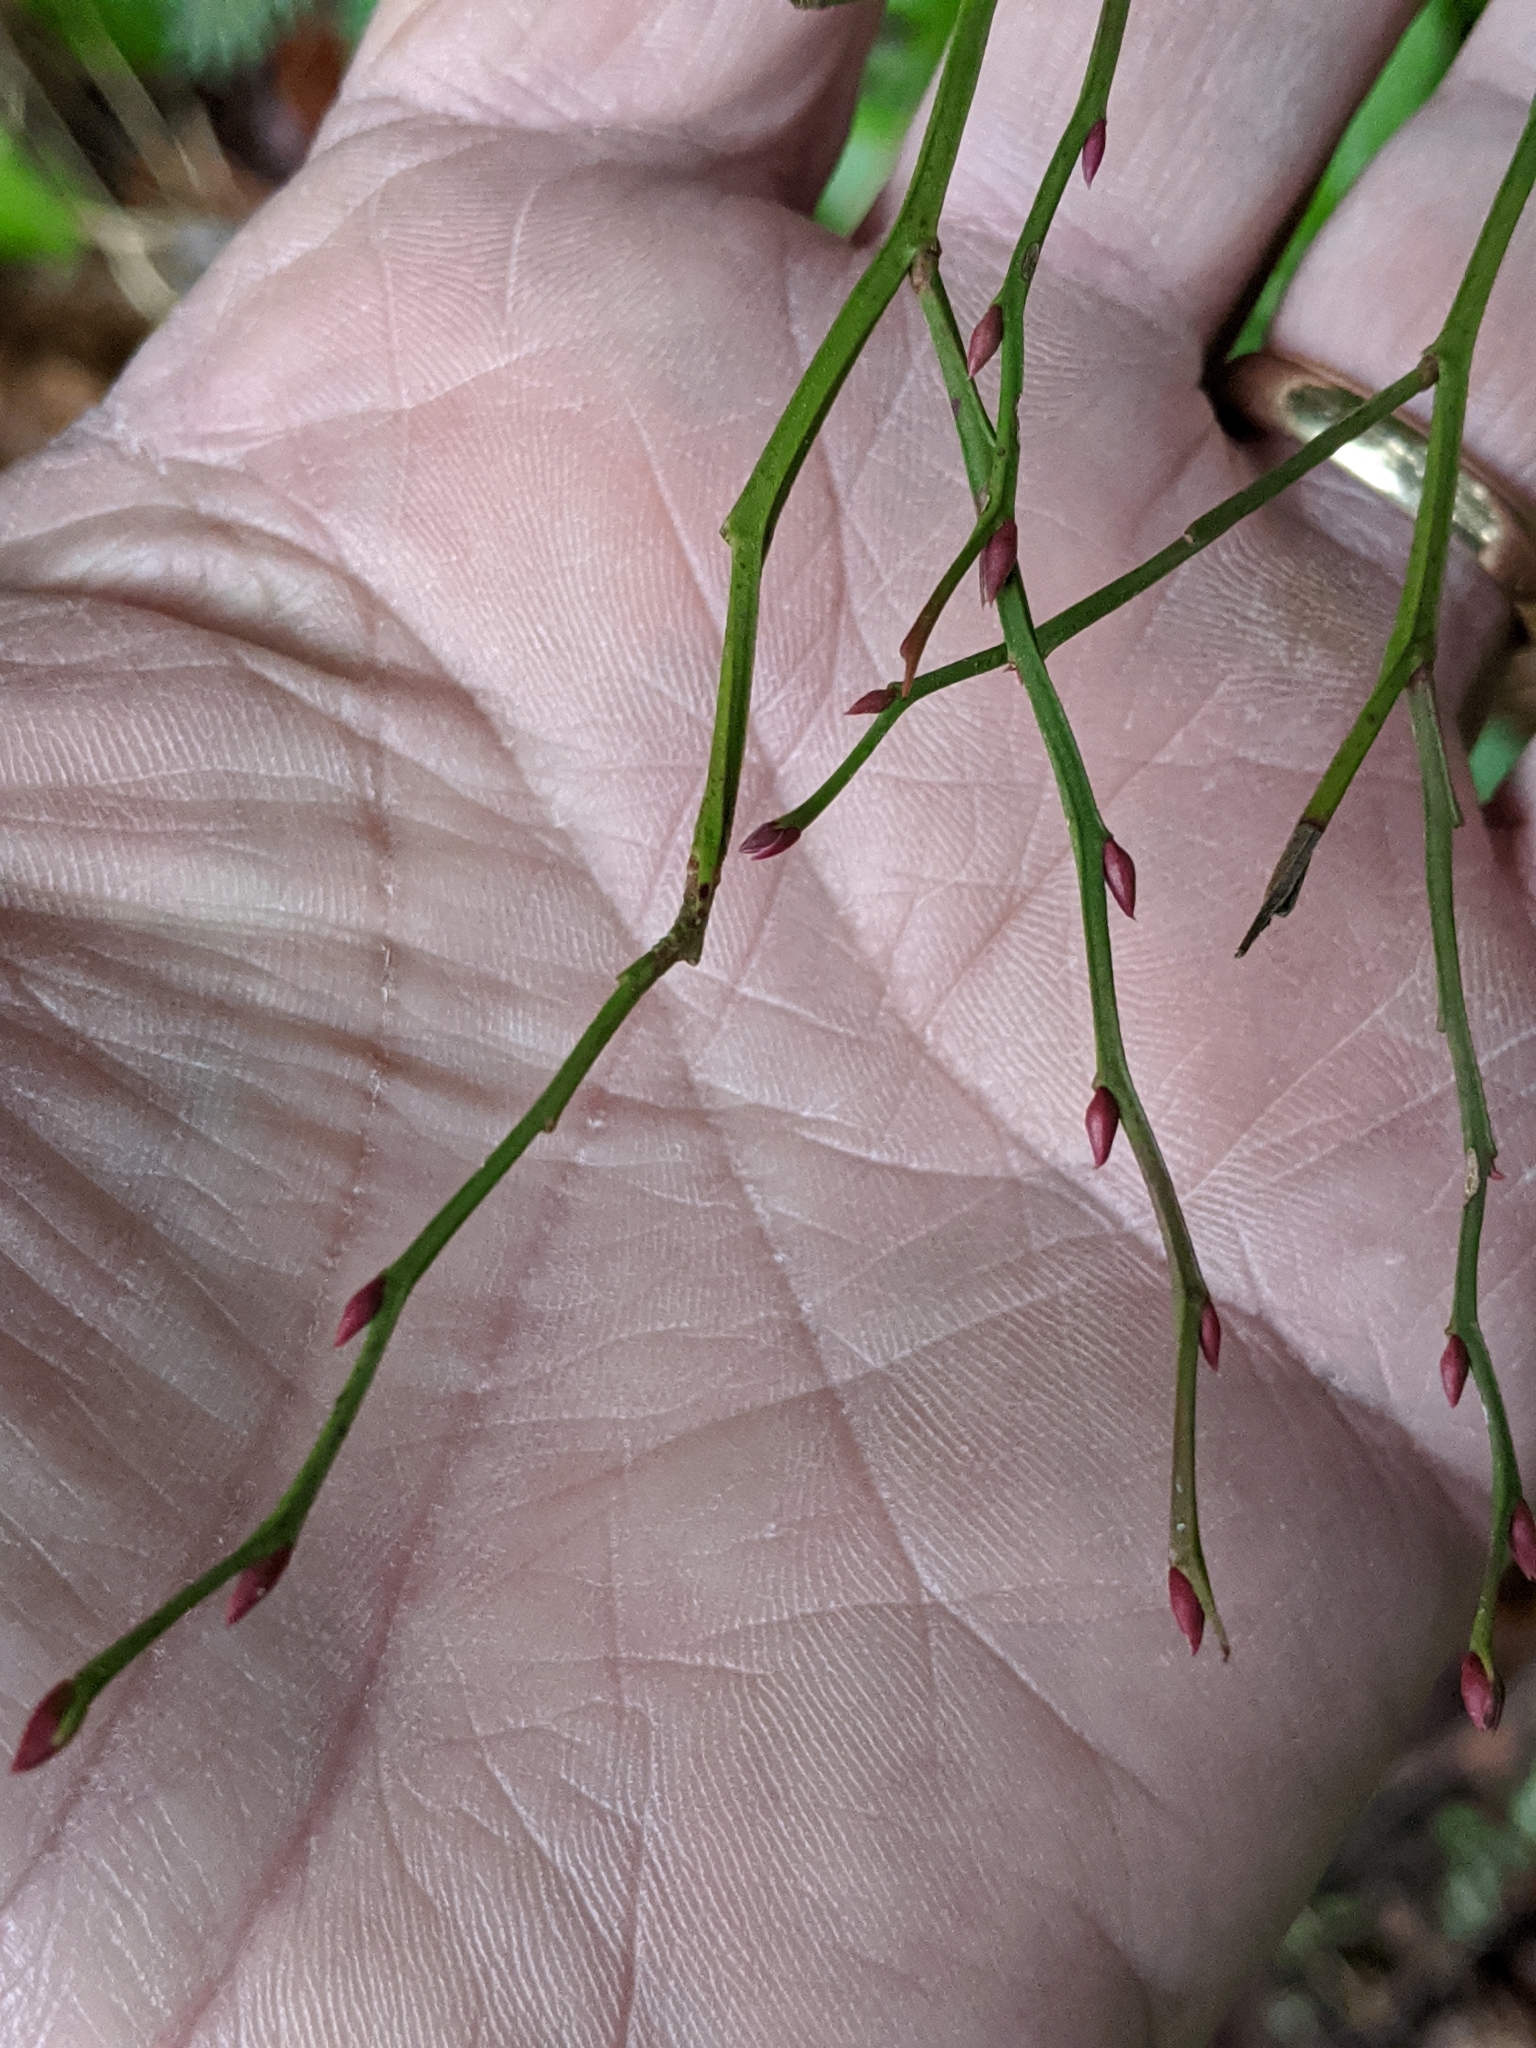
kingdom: Plantae
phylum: Tracheophyta
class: Magnoliopsida
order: Ericales
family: Ericaceae
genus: Vaccinium
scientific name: Vaccinium parvifolium
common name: Red-huckleberry
